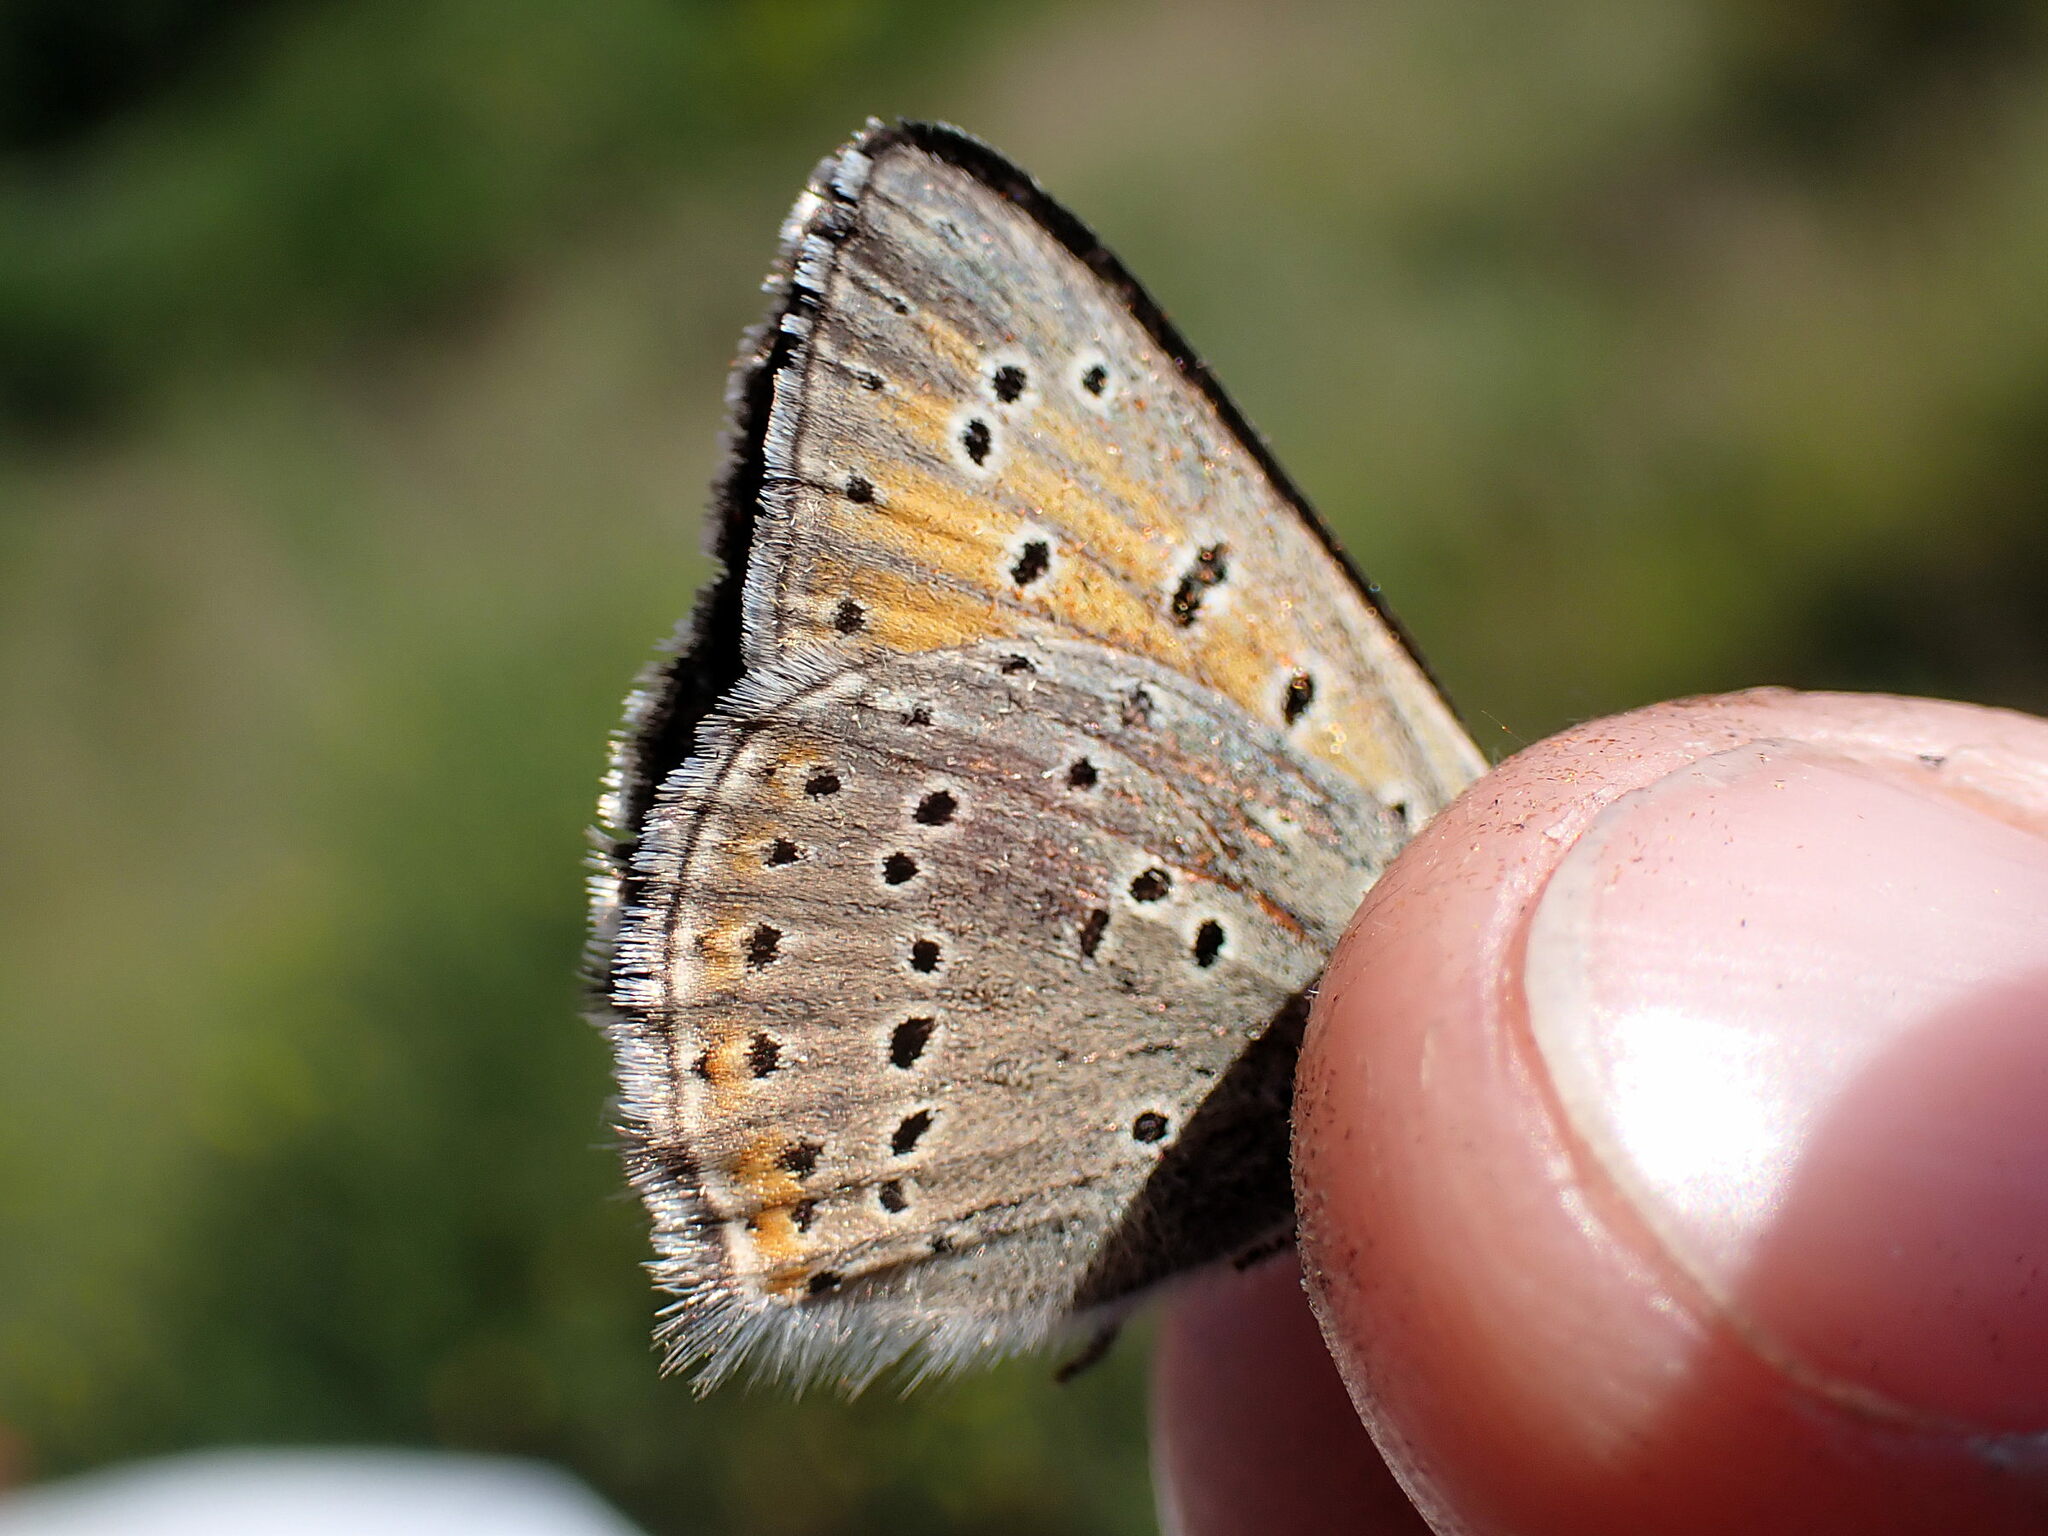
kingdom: Animalia
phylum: Arthropoda
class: Insecta
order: Lepidoptera
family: Lycaenidae
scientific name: Lycaenidae
